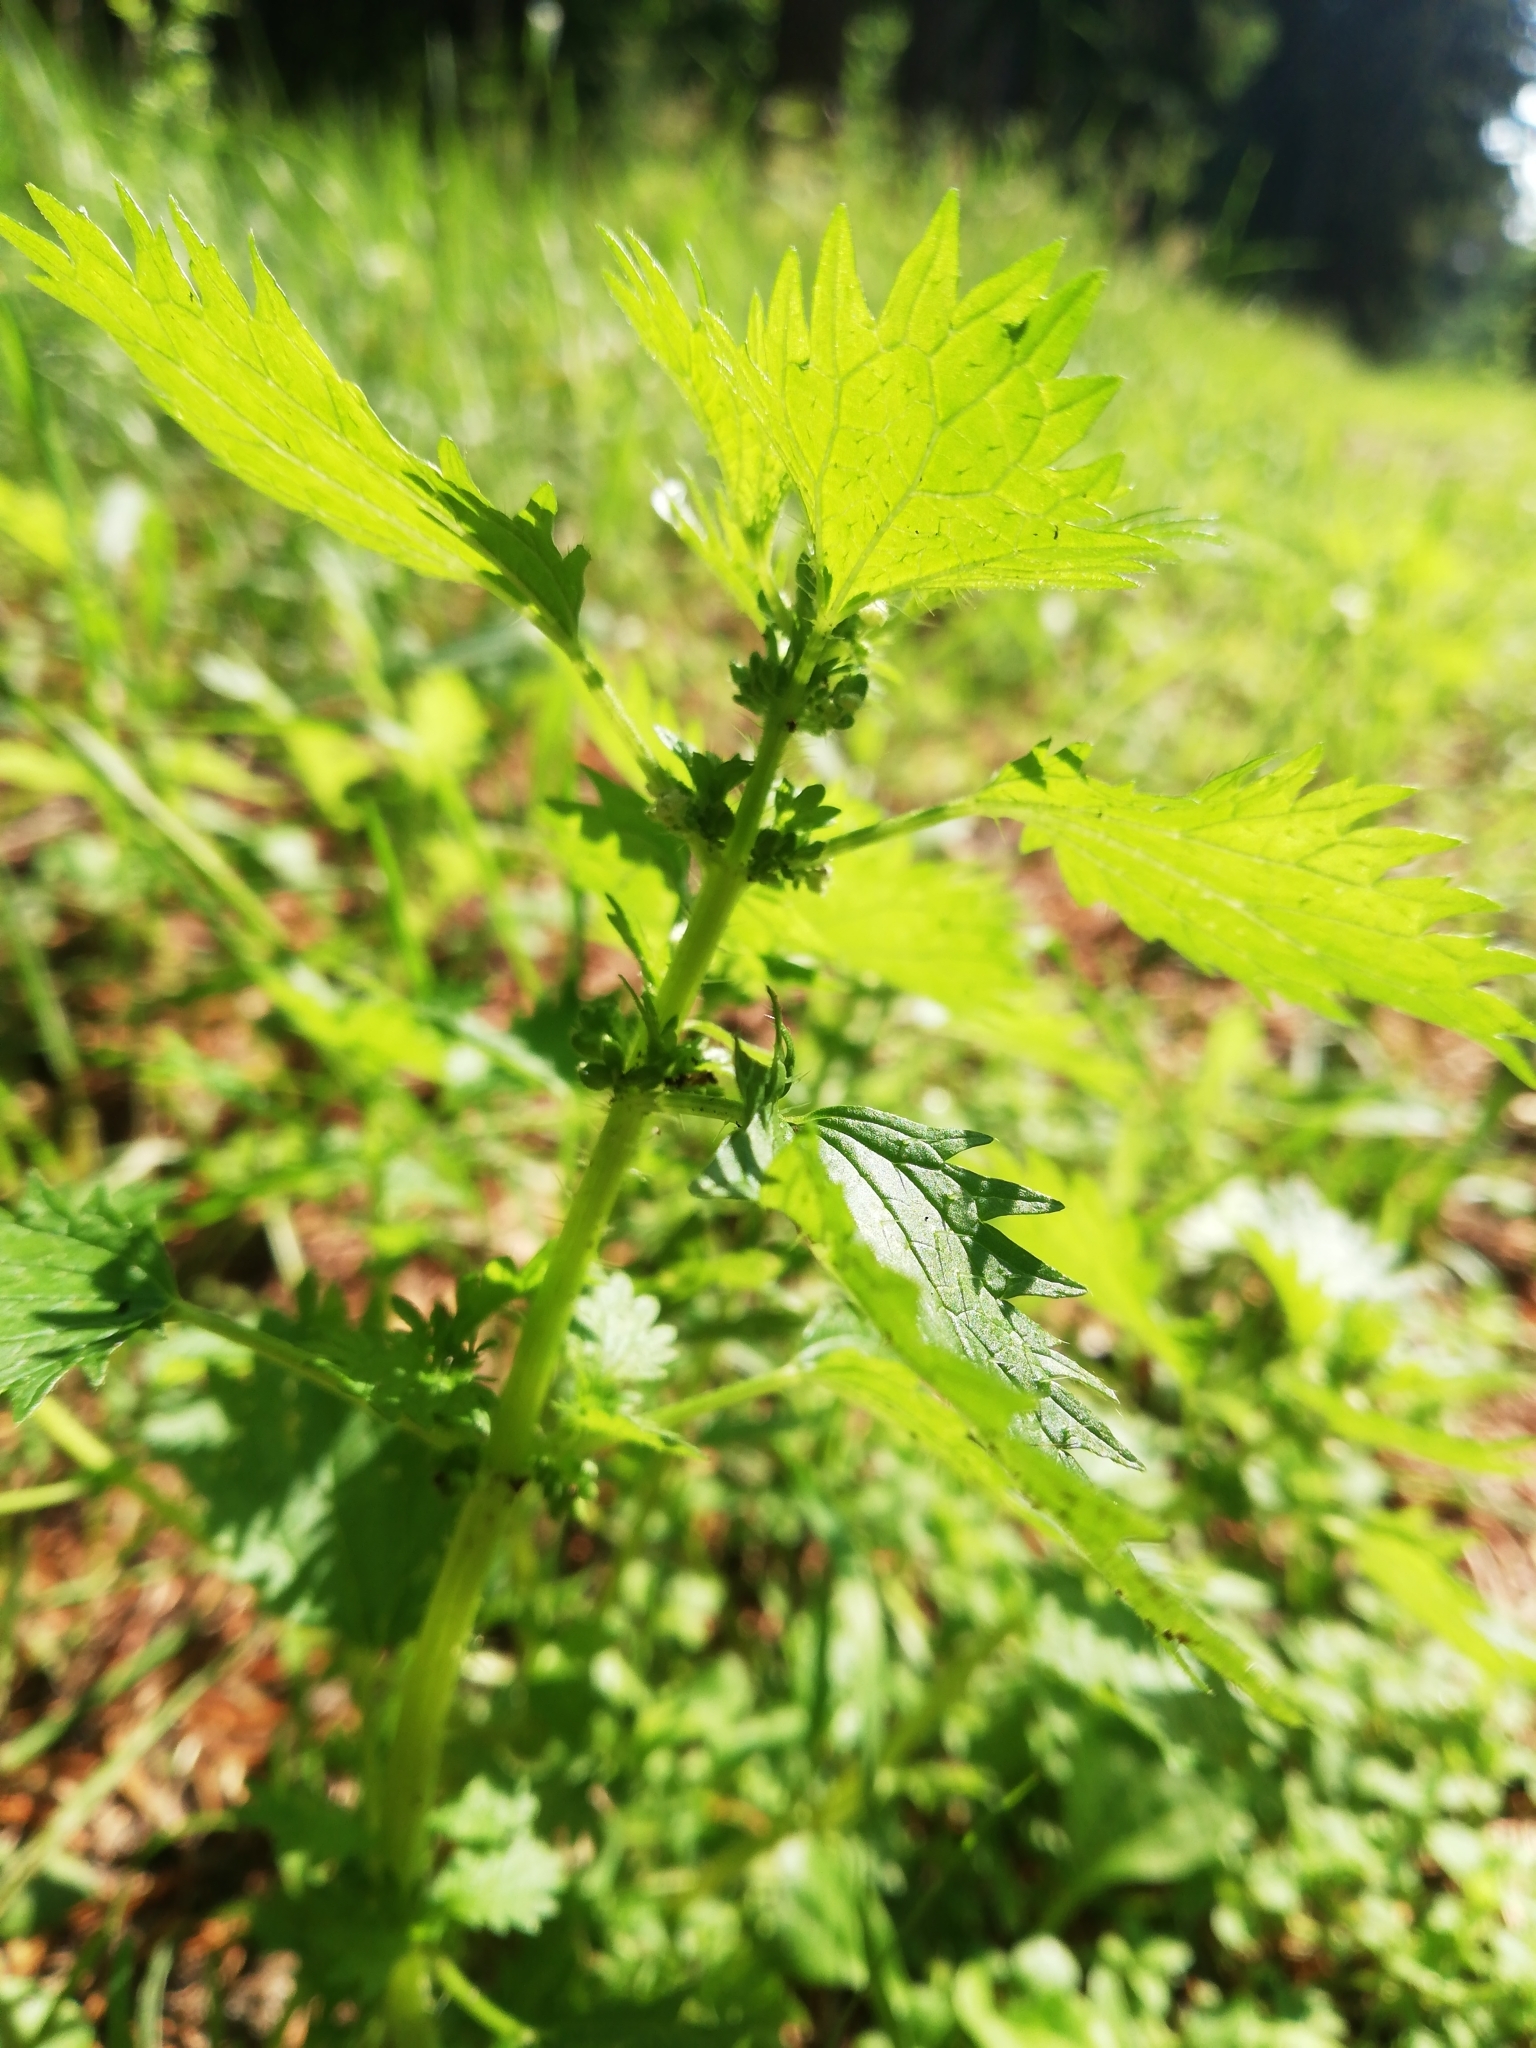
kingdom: Plantae
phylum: Tracheophyta
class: Magnoliopsida
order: Rosales
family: Urticaceae
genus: Urtica
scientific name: Urtica urens
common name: Dwarf nettle
